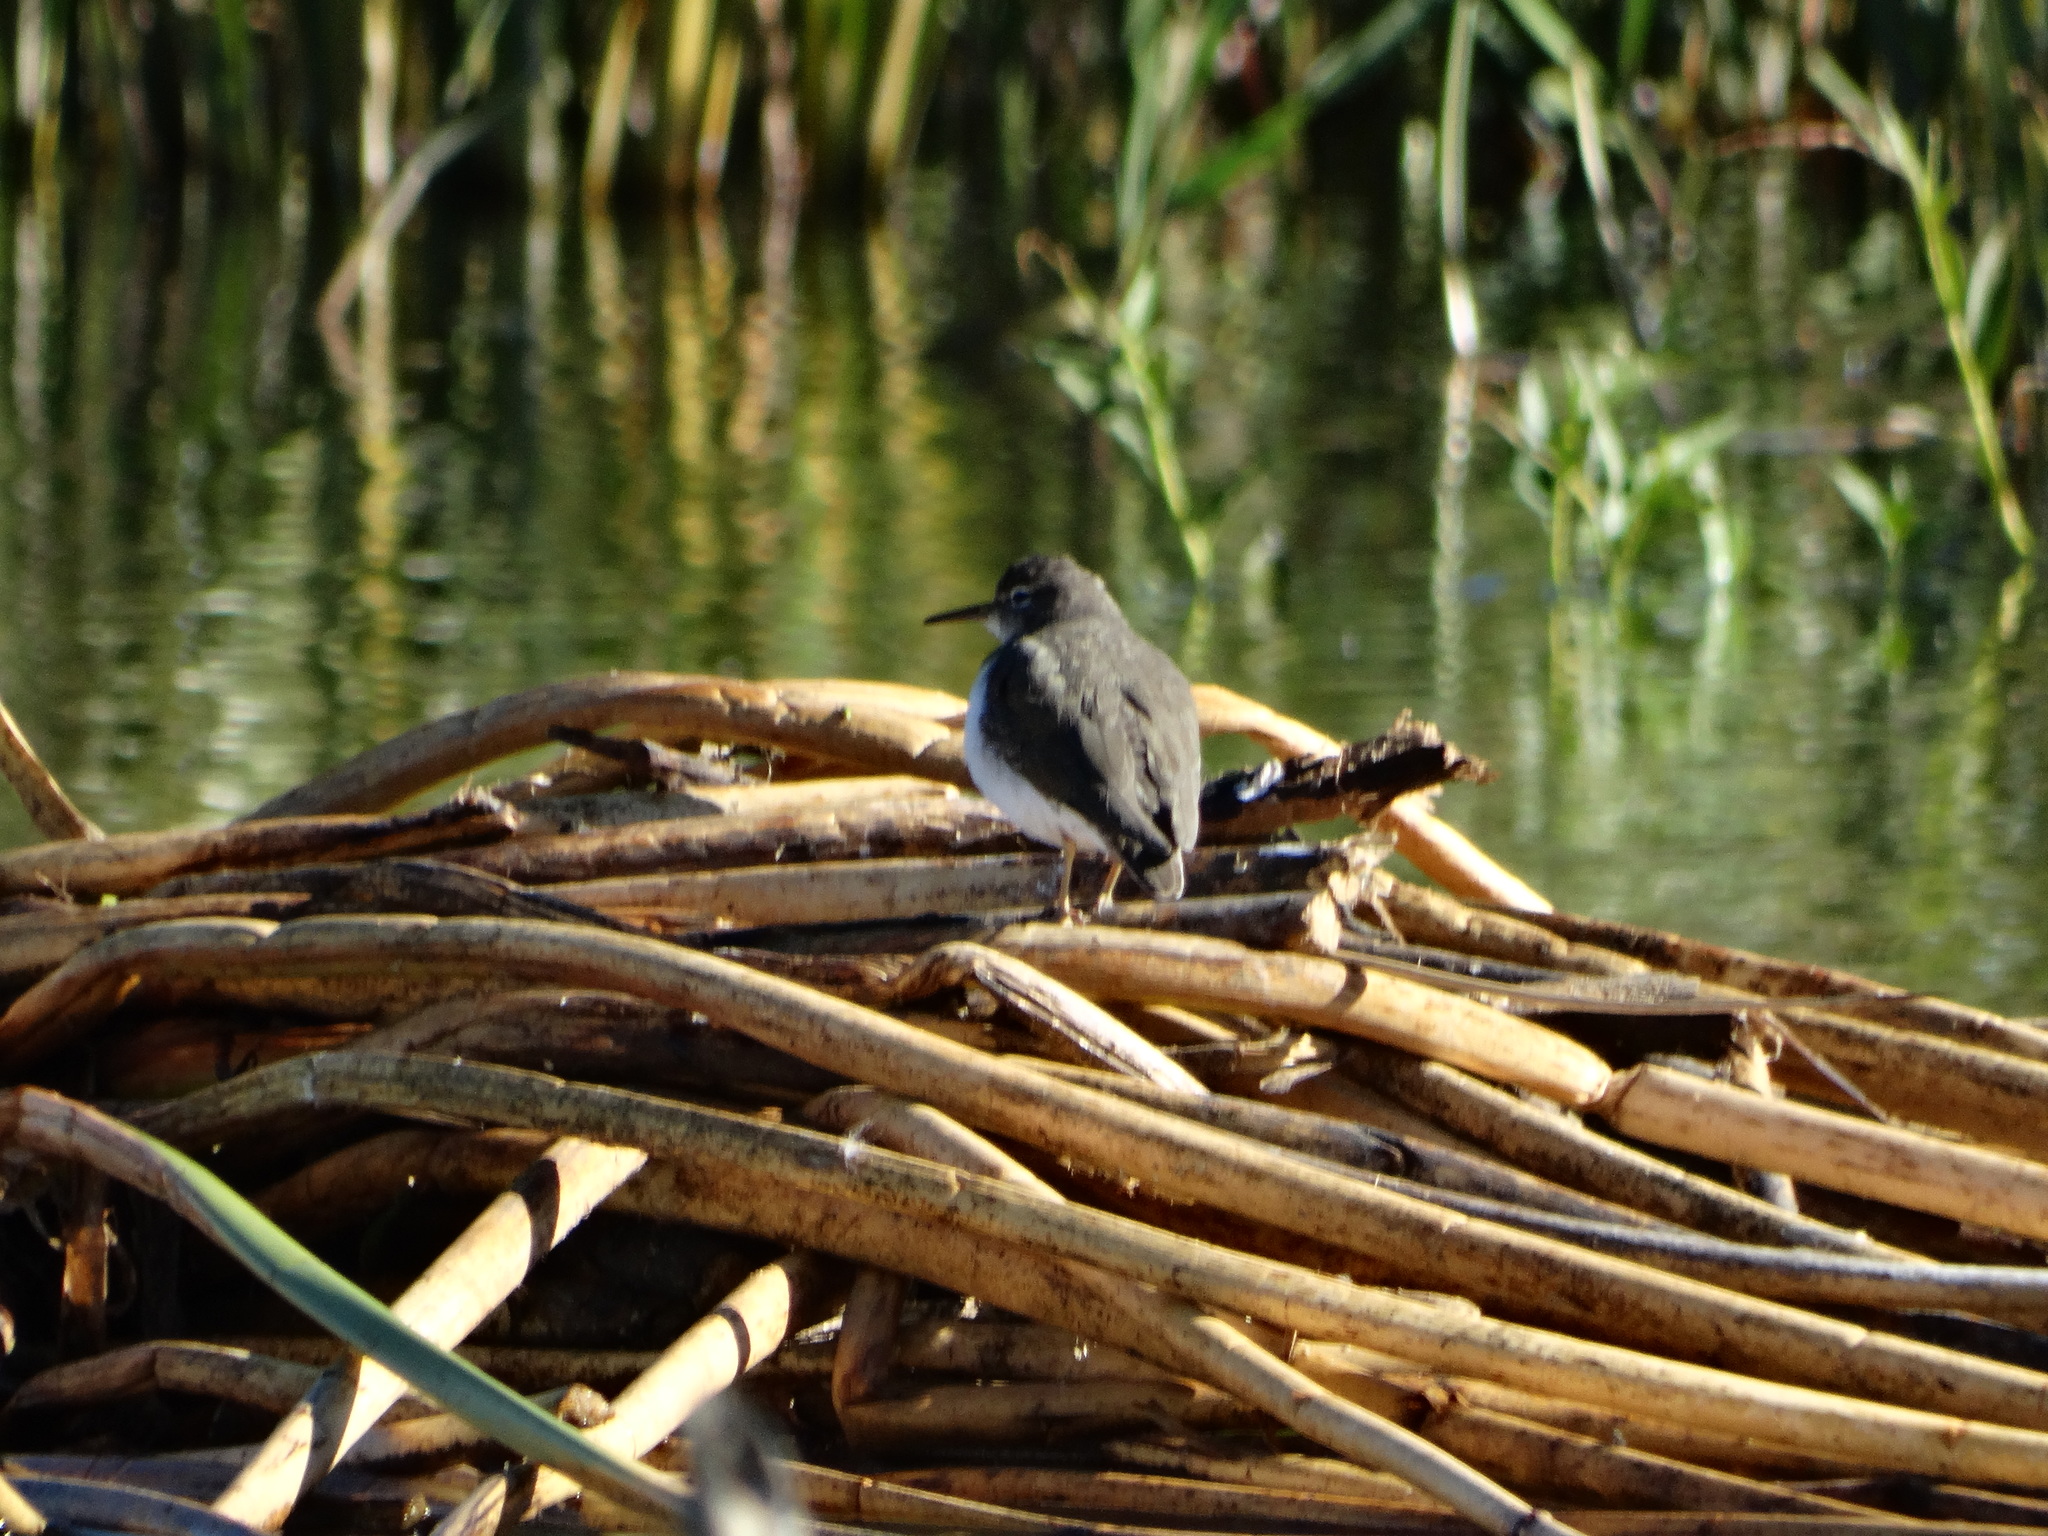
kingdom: Animalia
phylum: Chordata
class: Aves
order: Charadriiformes
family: Scolopacidae
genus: Actitis
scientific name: Actitis macularius
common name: Spotted sandpiper
